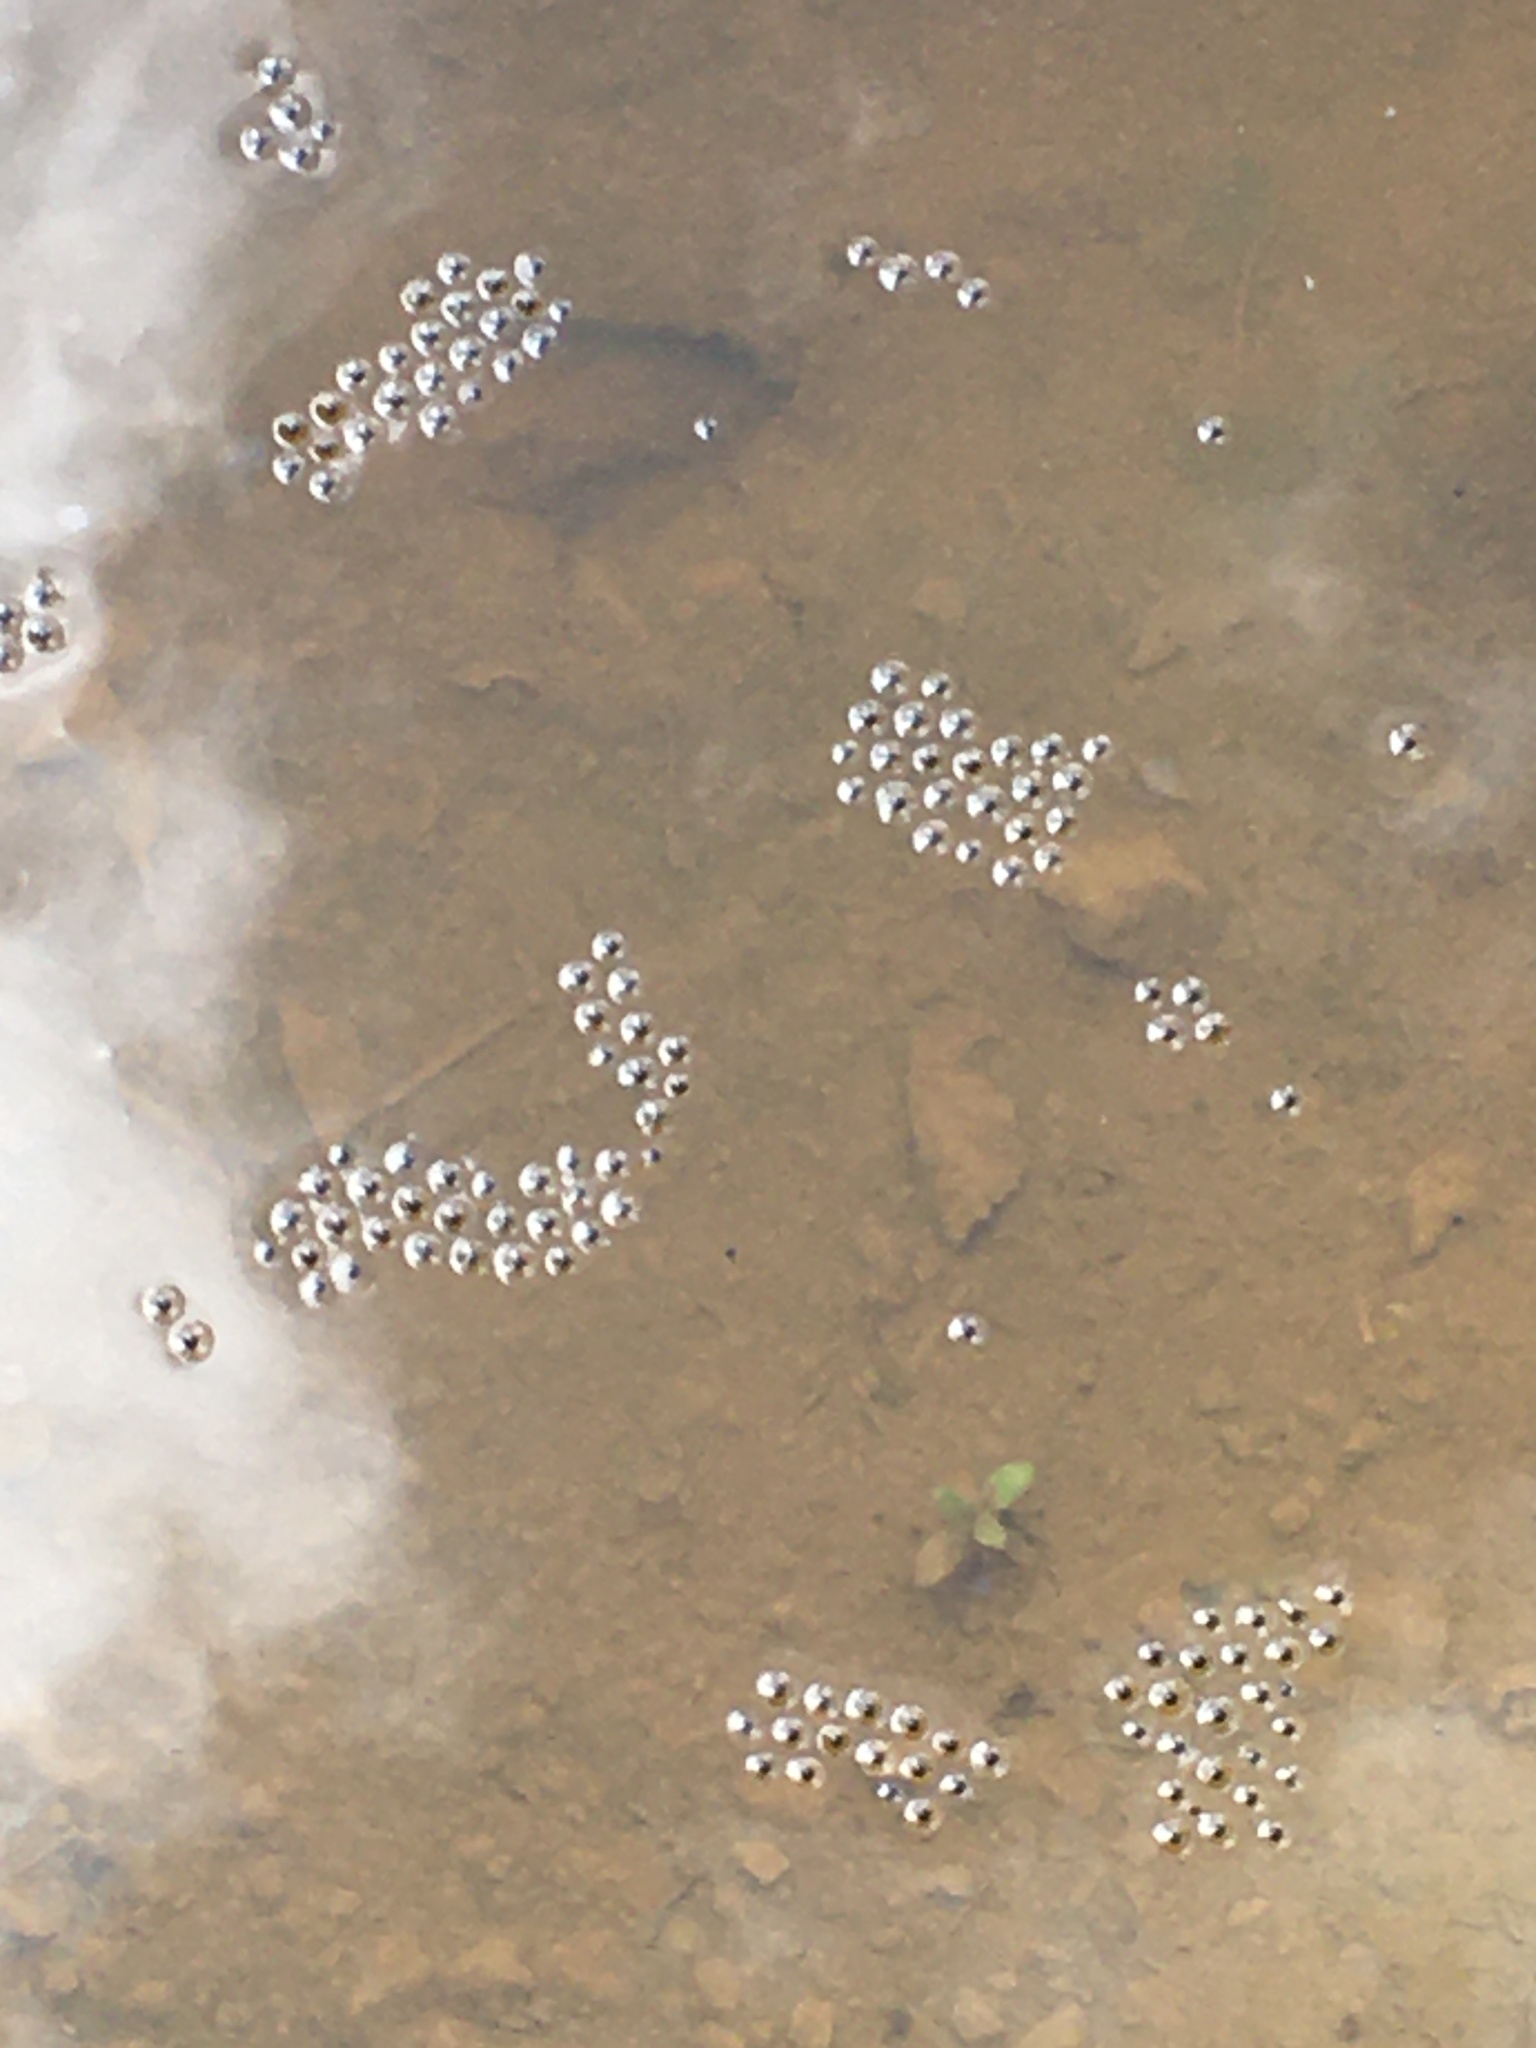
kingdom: Animalia
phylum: Chordata
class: Amphibia
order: Anura
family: Microhylidae
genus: Gastrophryne
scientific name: Gastrophryne carolinensis
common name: Eastern narrowmouth toad
